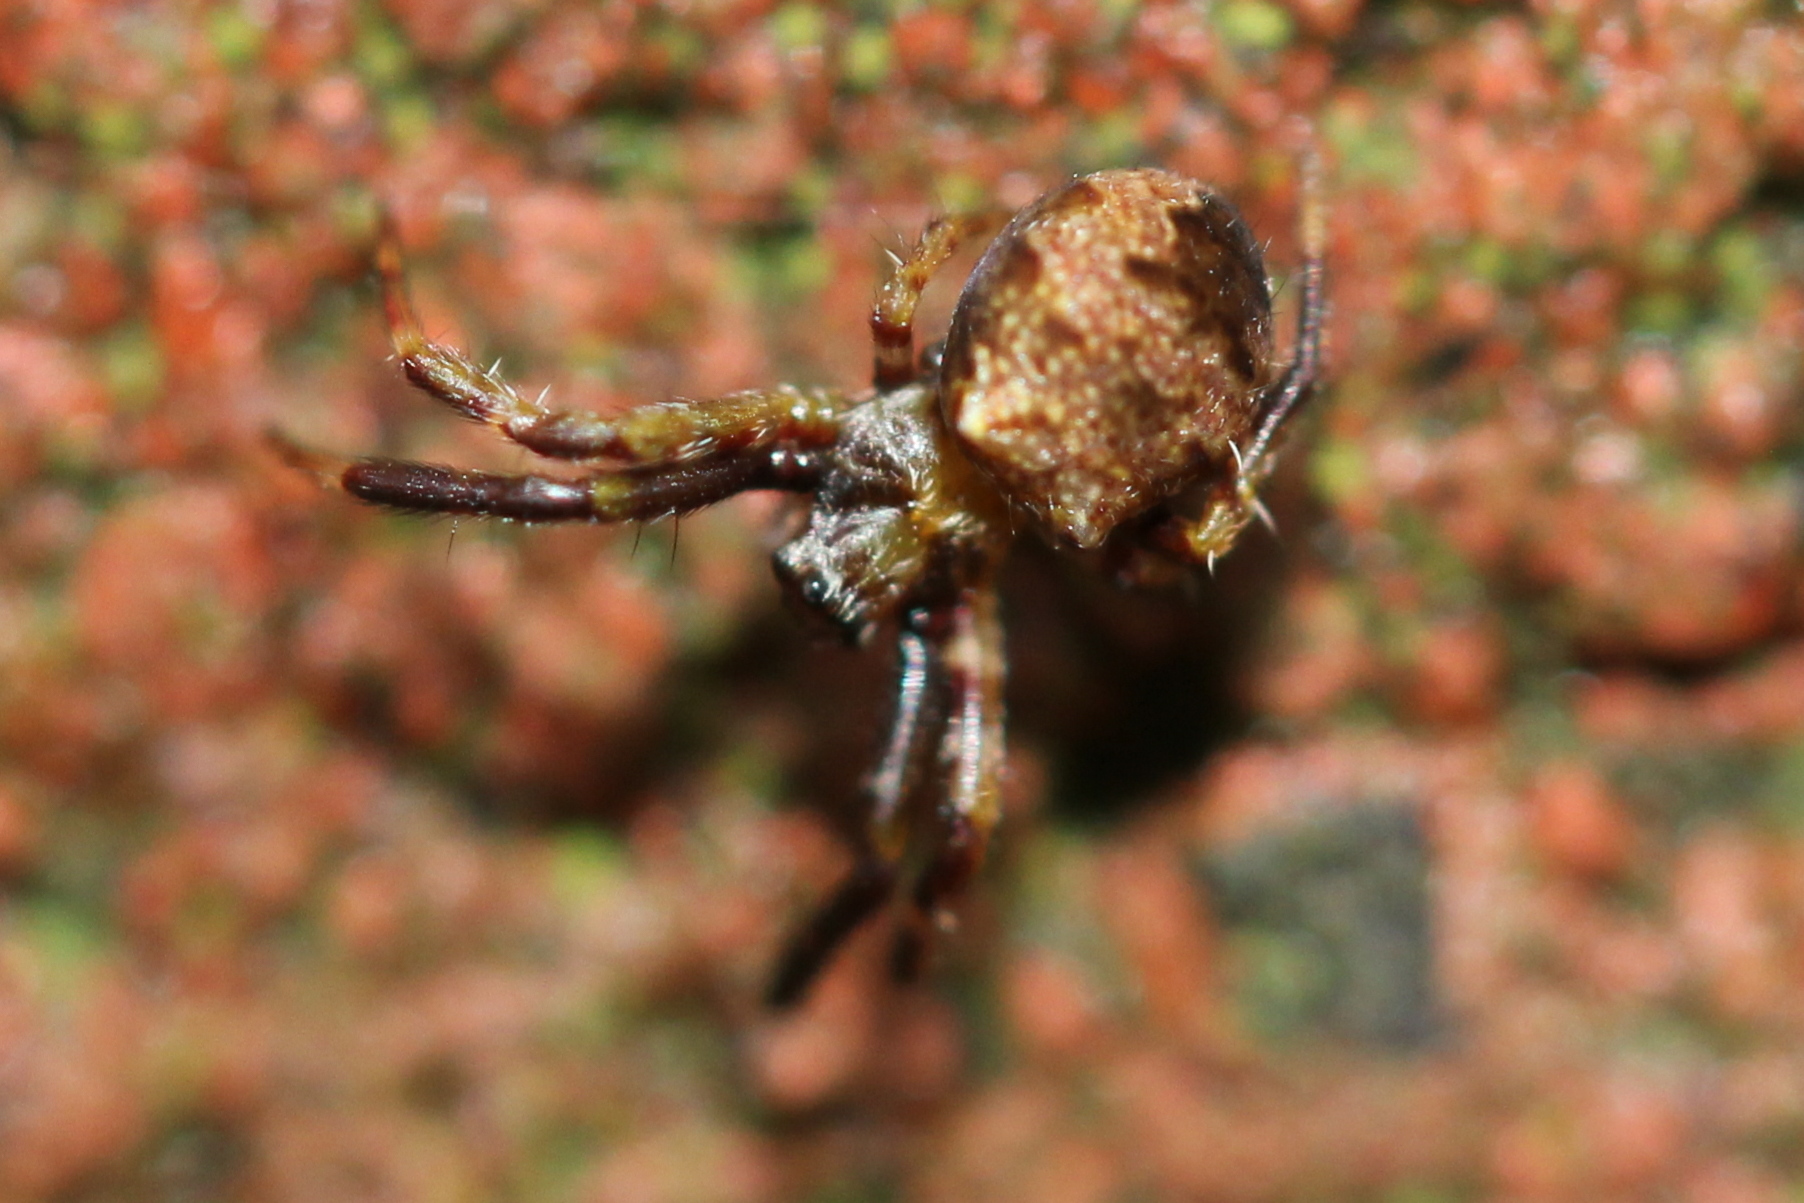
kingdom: Animalia
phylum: Arthropoda
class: Arachnida
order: Araneae
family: Araneidae
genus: Gea
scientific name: Gea heptagon
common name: Orb weavers
